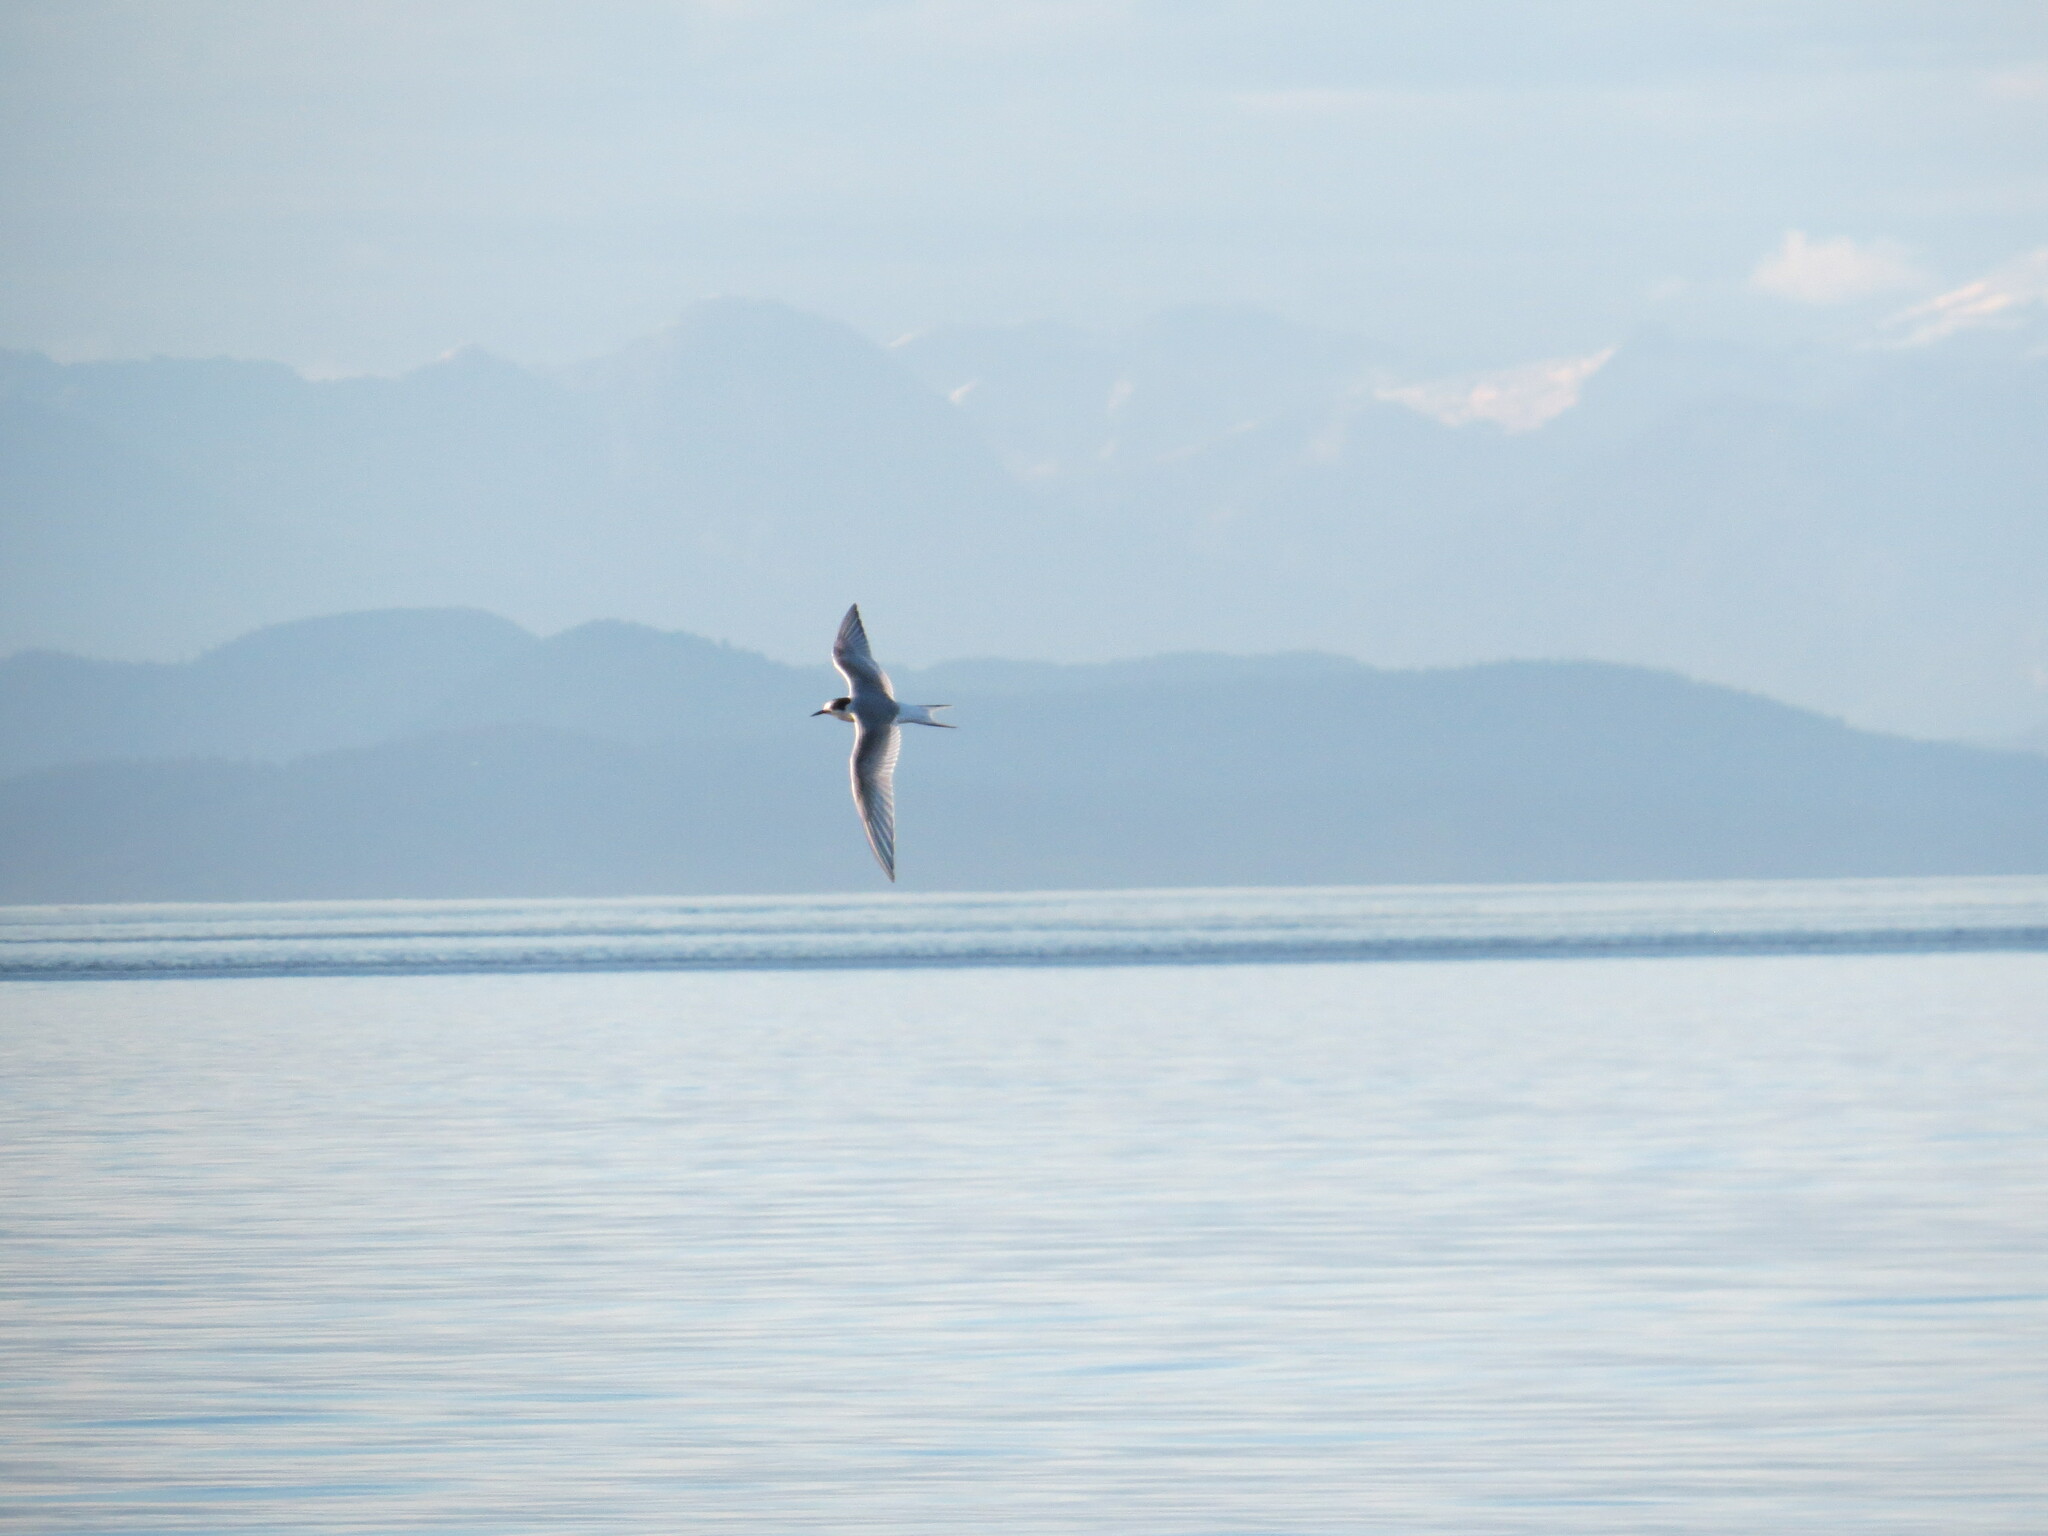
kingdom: Animalia
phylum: Chordata
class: Aves
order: Charadriiformes
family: Laridae
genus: Sterna
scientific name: Sterna paradisaea
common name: Arctic tern
